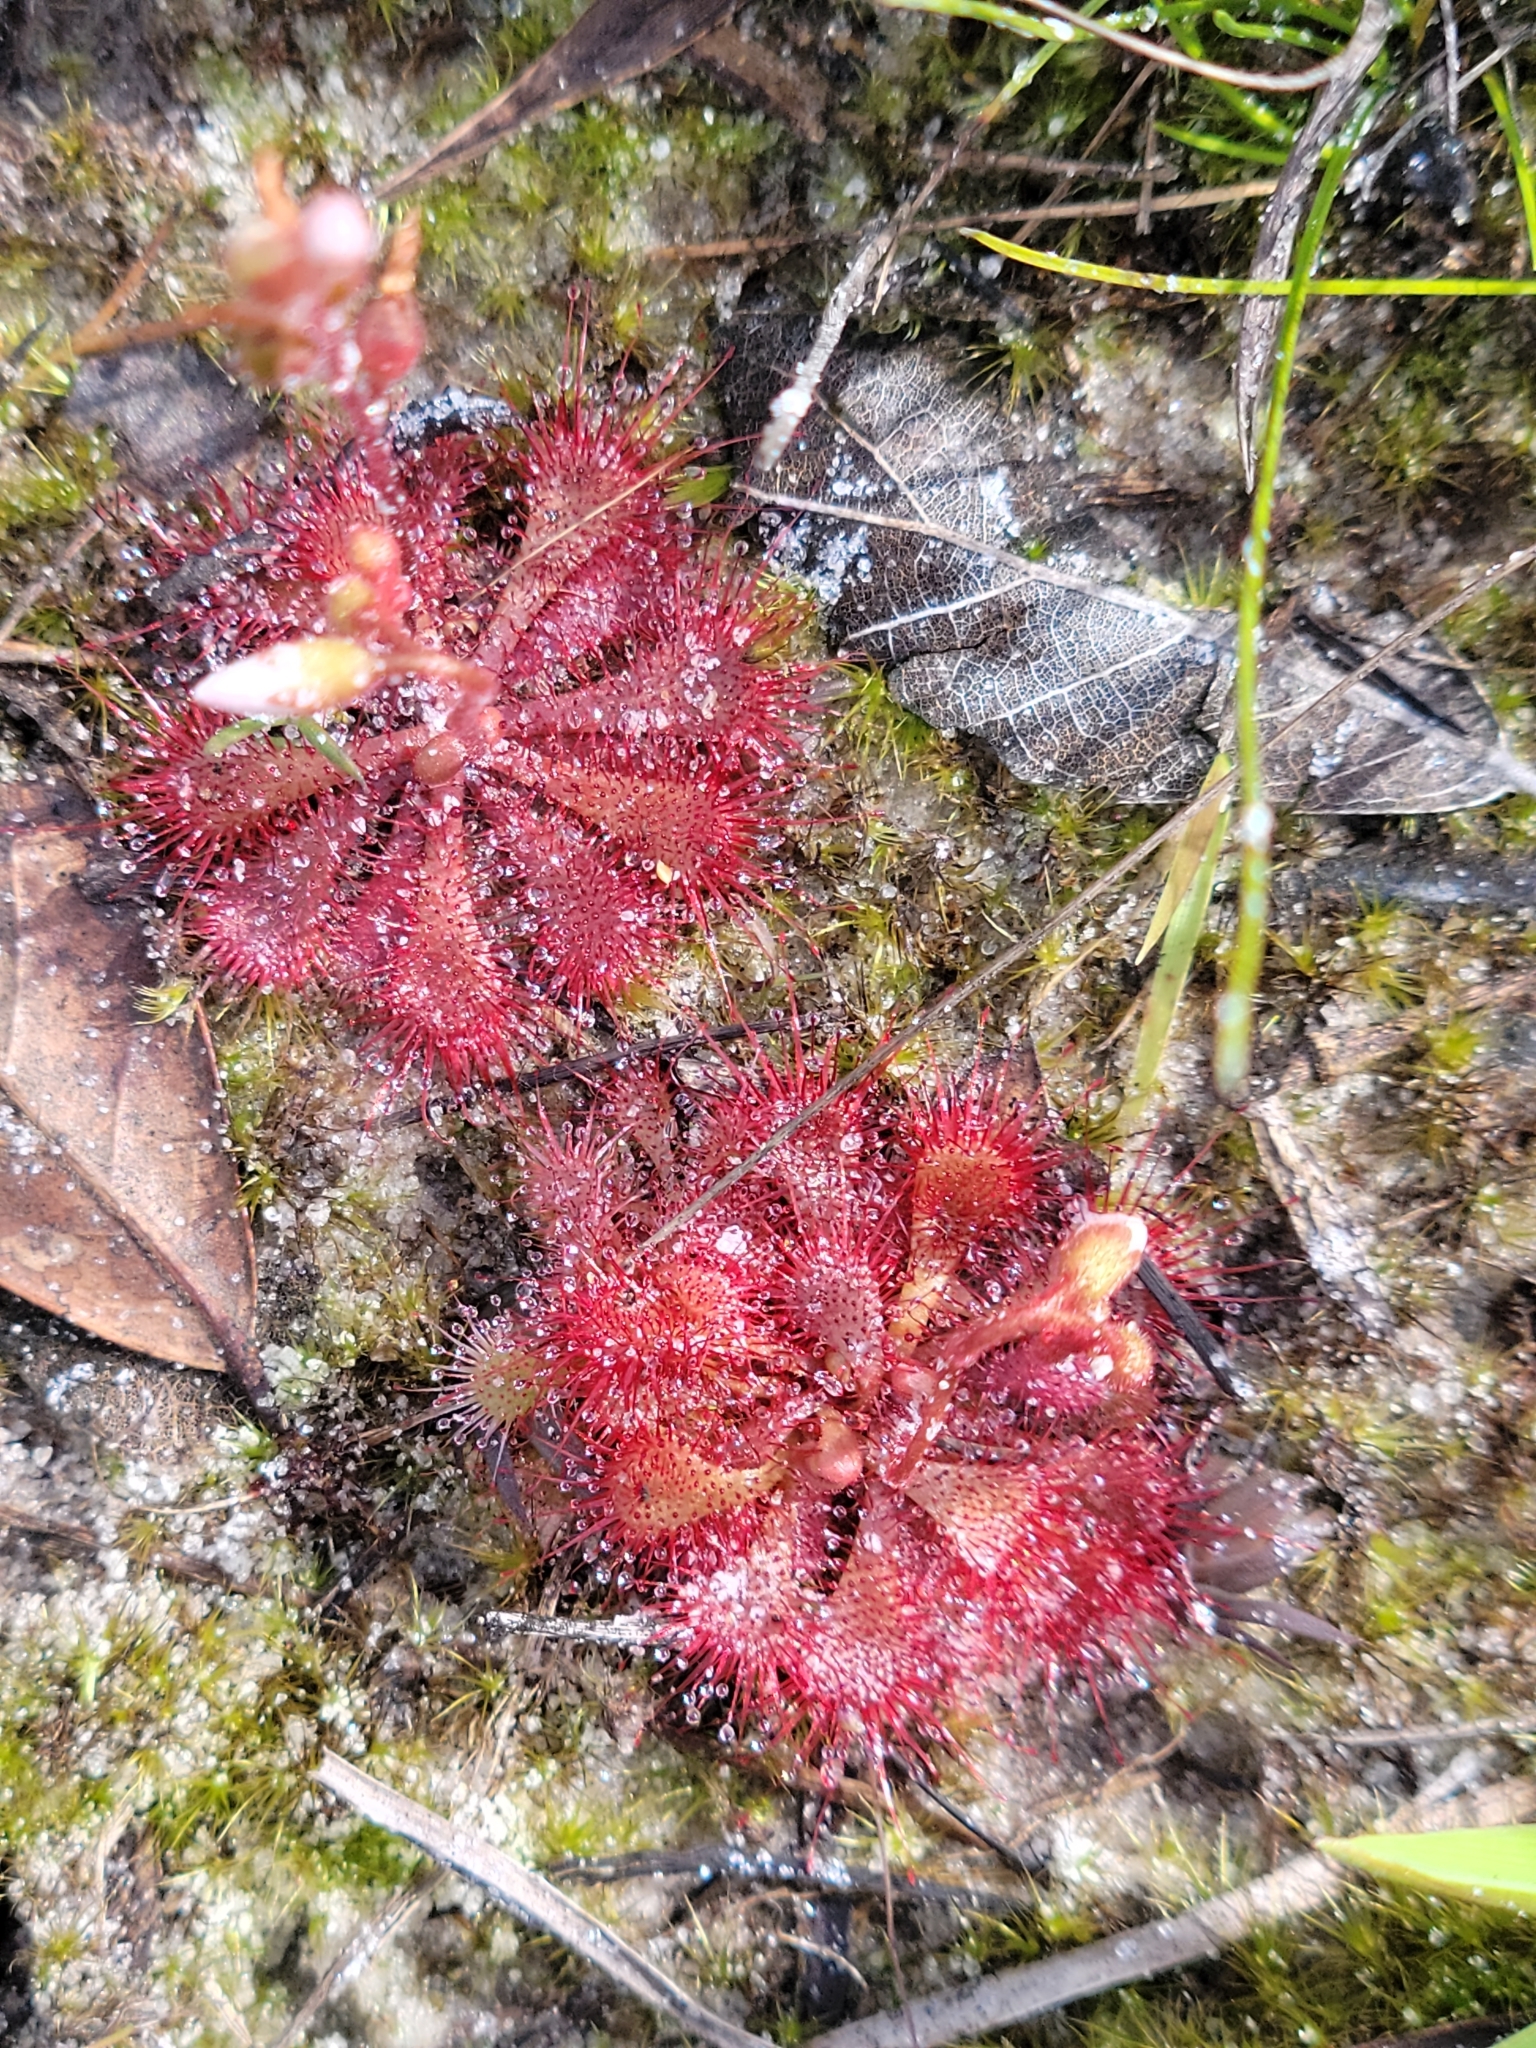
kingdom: Plantae
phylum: Tracheophyta
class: Magnoliopsida
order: Caryophyllales
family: Droseraceae
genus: Drosera
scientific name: Drosera brevifolia
